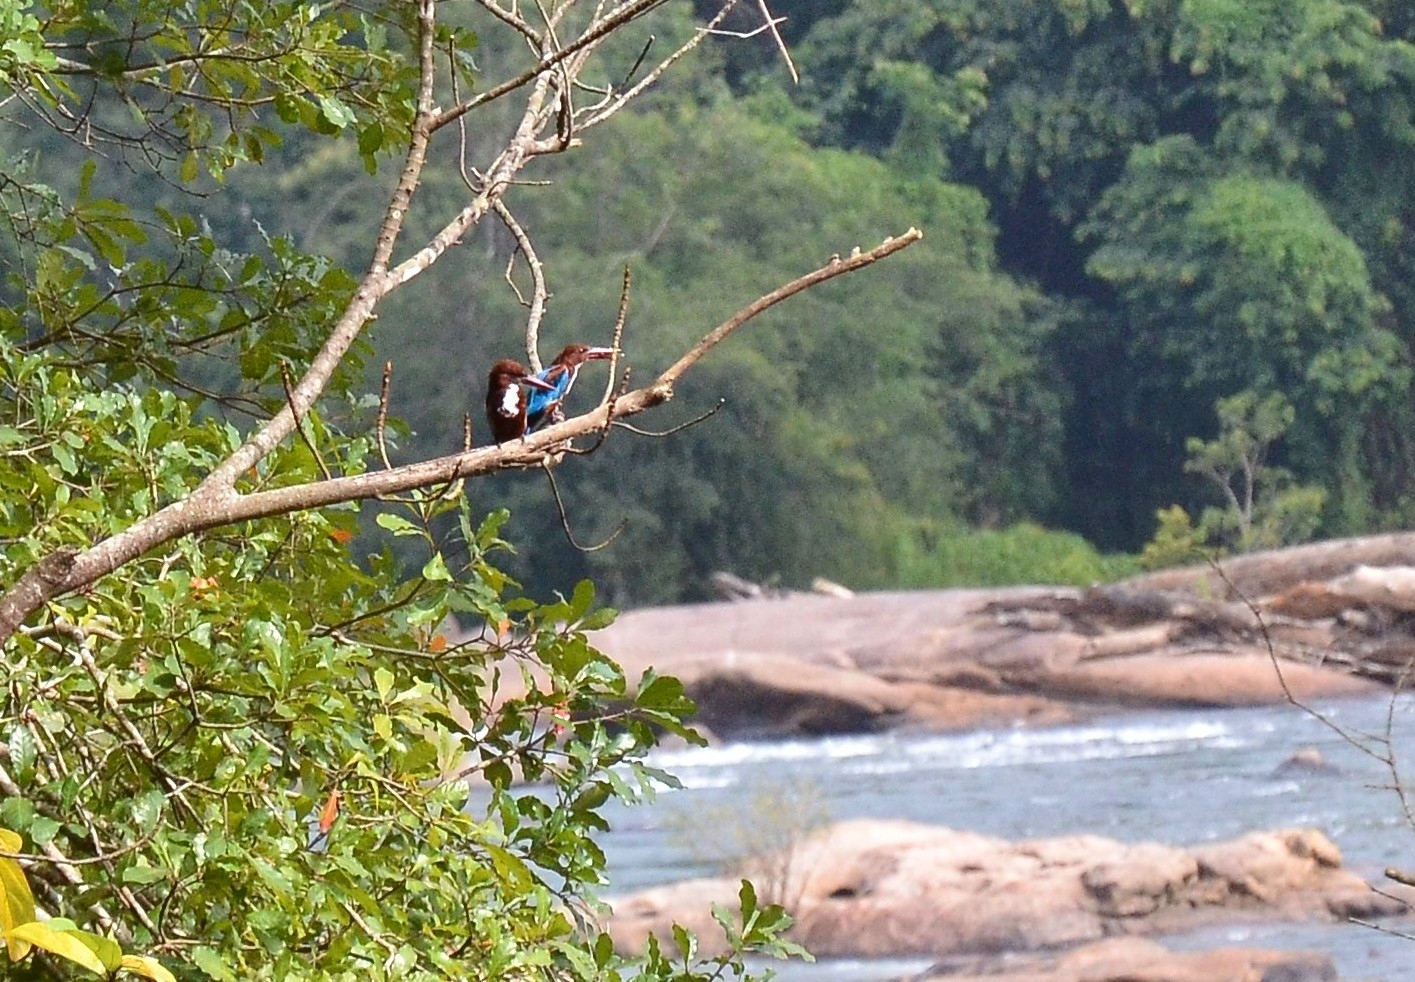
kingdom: Animalia
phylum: Chordata
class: Aves
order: Coraciiformes
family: Alcedinidae
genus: Halcyon
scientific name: Halcyon smyrnensis
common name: White-throated kingfisher
